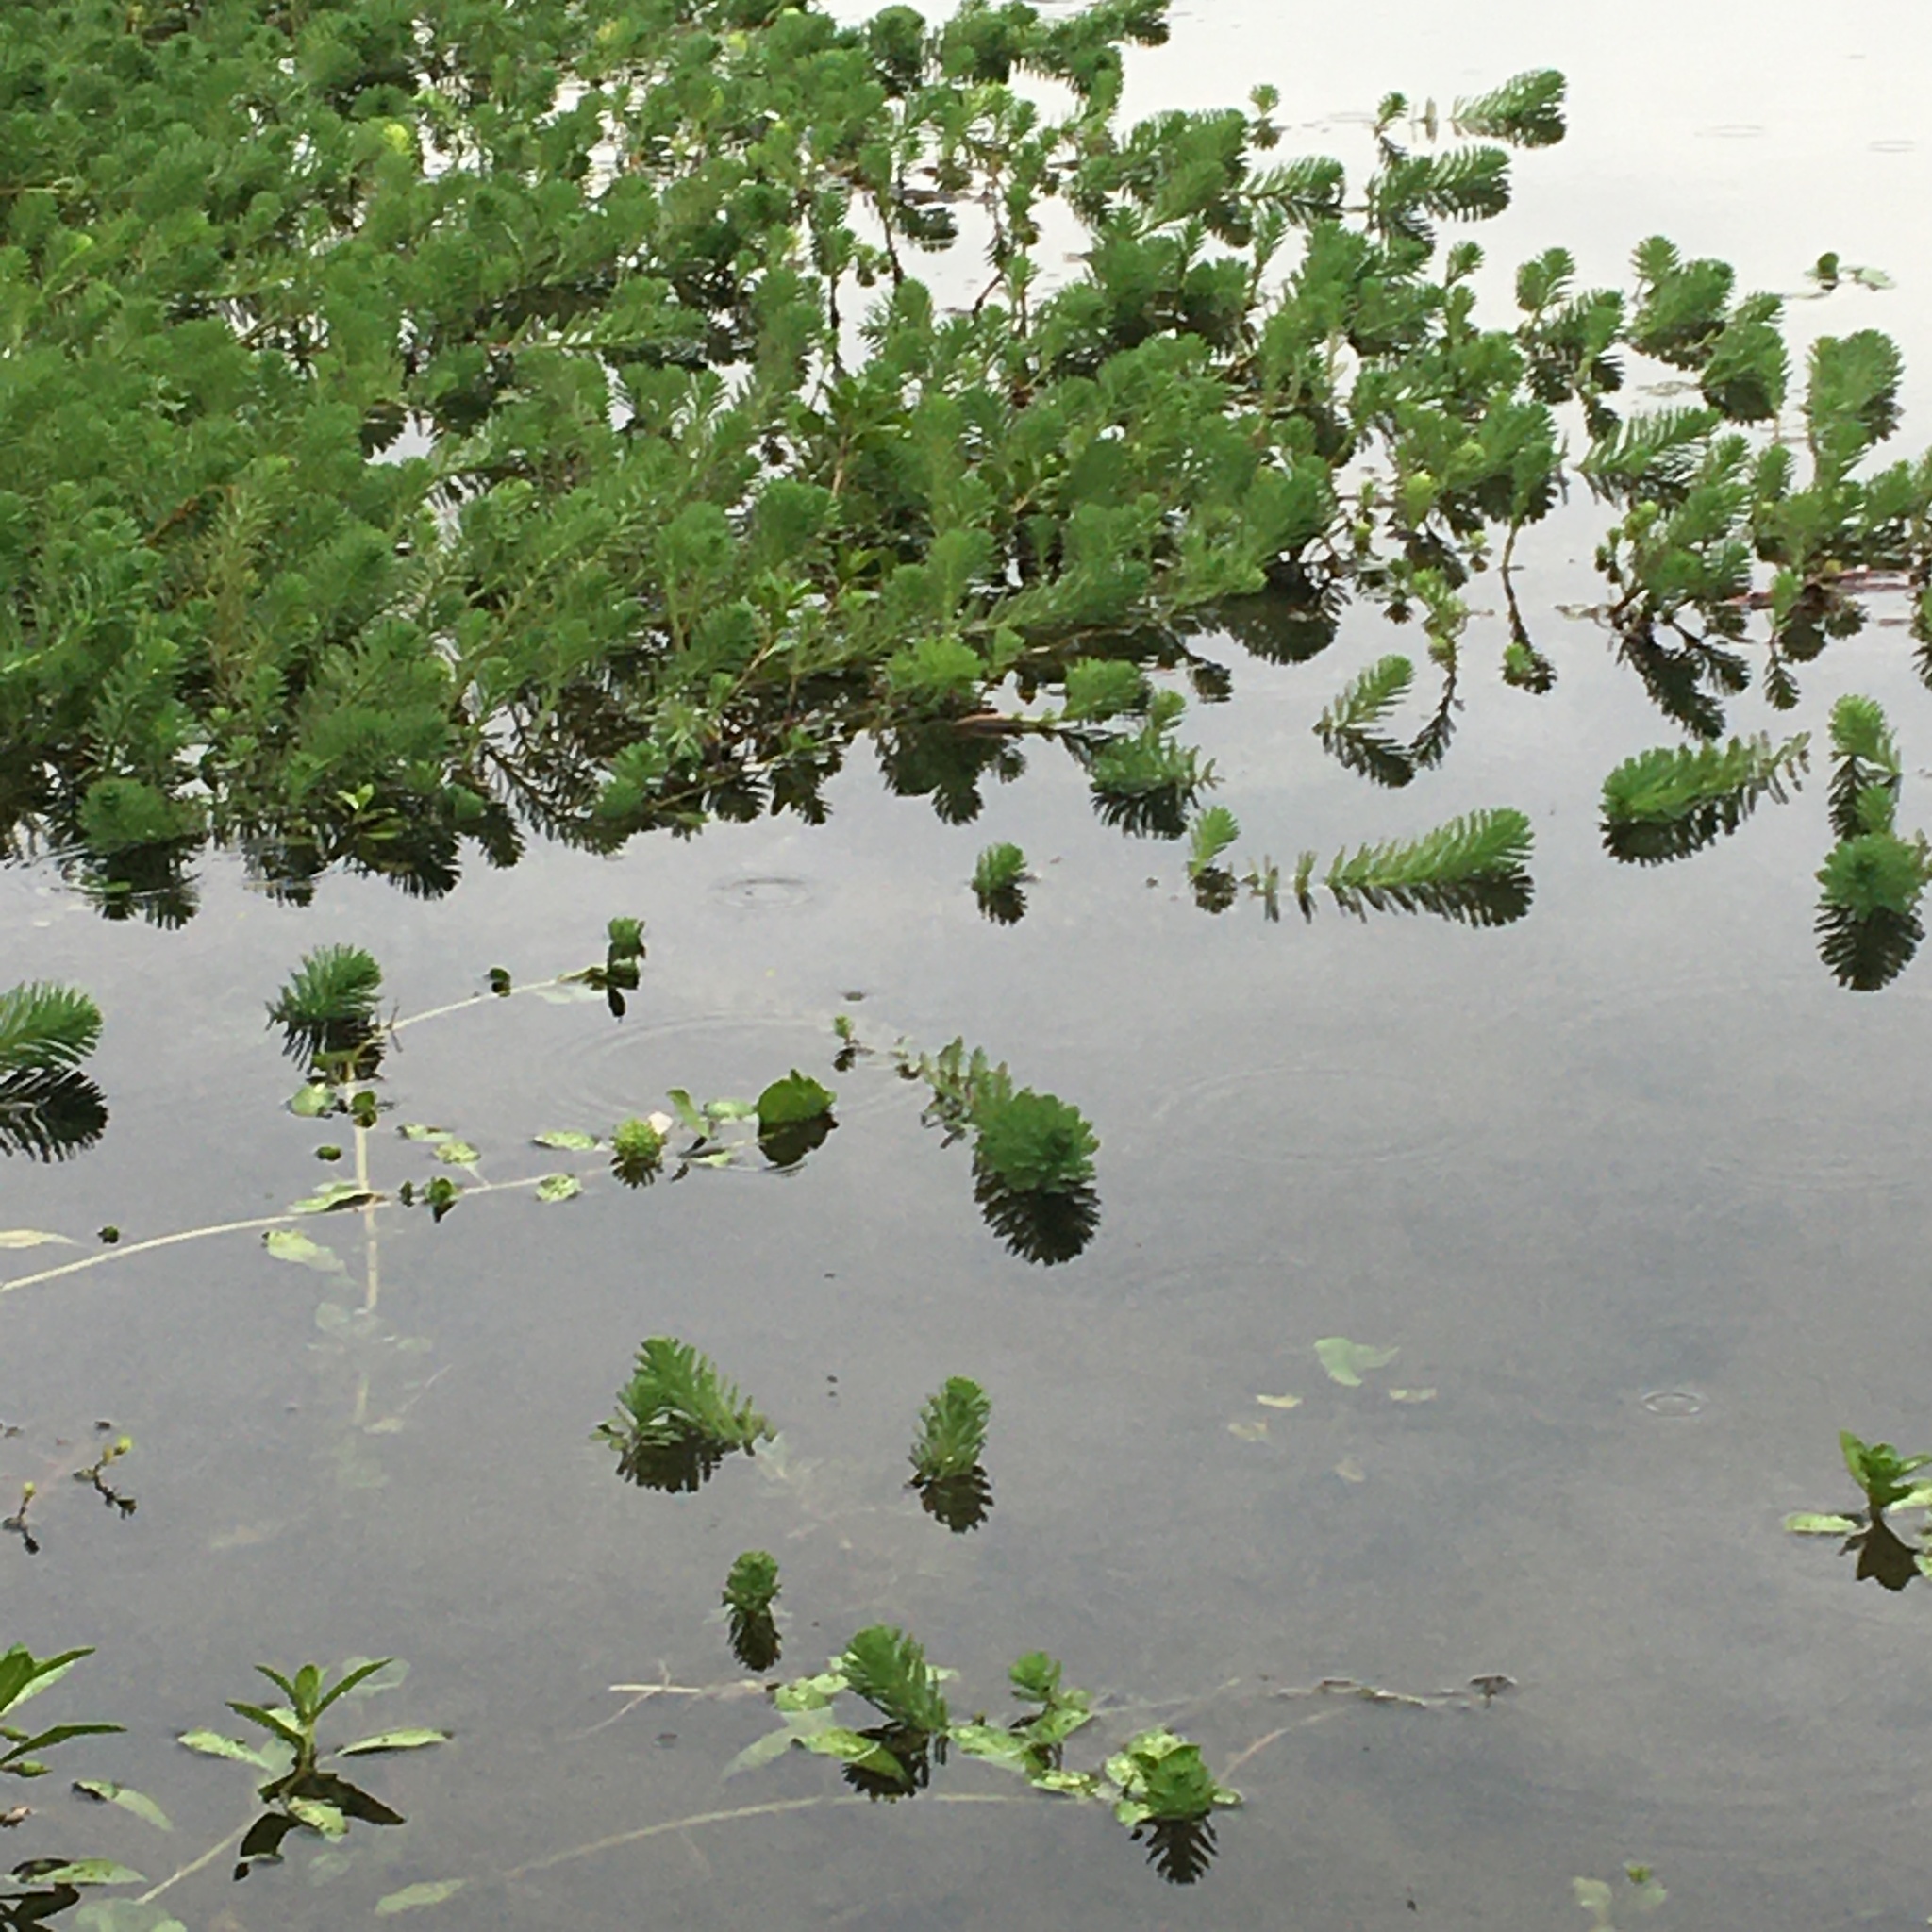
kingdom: Plantae
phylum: Tracheophyta
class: Magnoliopsida
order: Saxifragales
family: Haloragaceae
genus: Myriophyllum
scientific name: Myriophyllum aquaticum
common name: Parrot's feather
